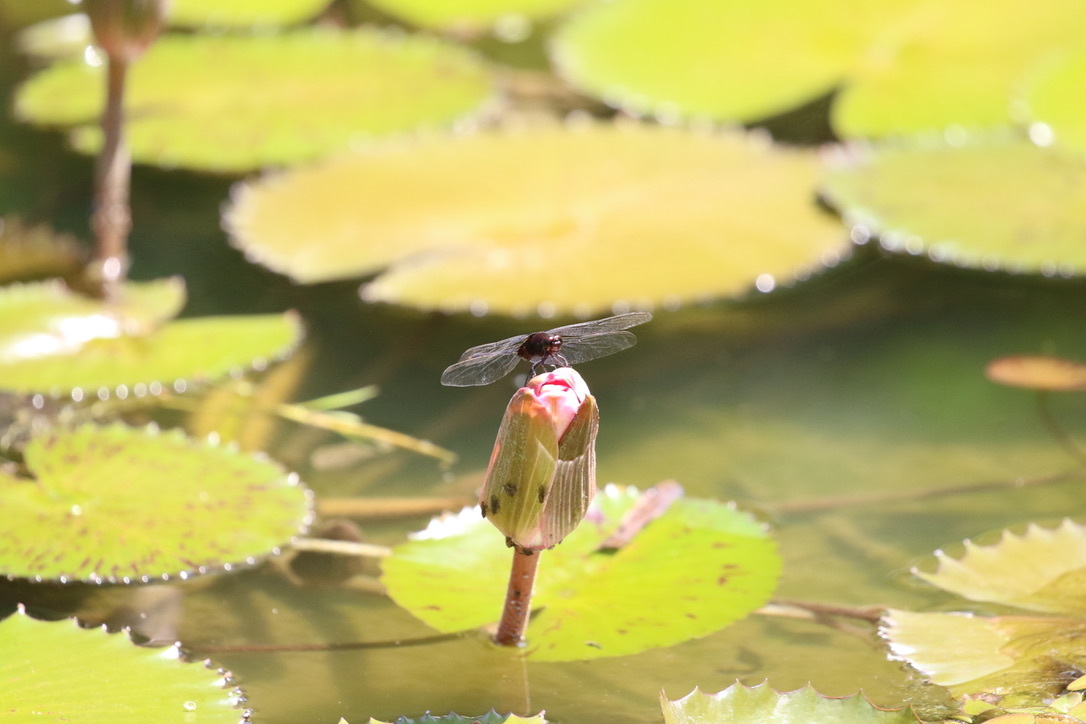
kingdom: Animalia
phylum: Arthropoda
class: Insecta
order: Odonata
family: Libellulidae
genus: Erythemis
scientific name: Erythemis plebeja
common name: Pin-tailed pondhawk
